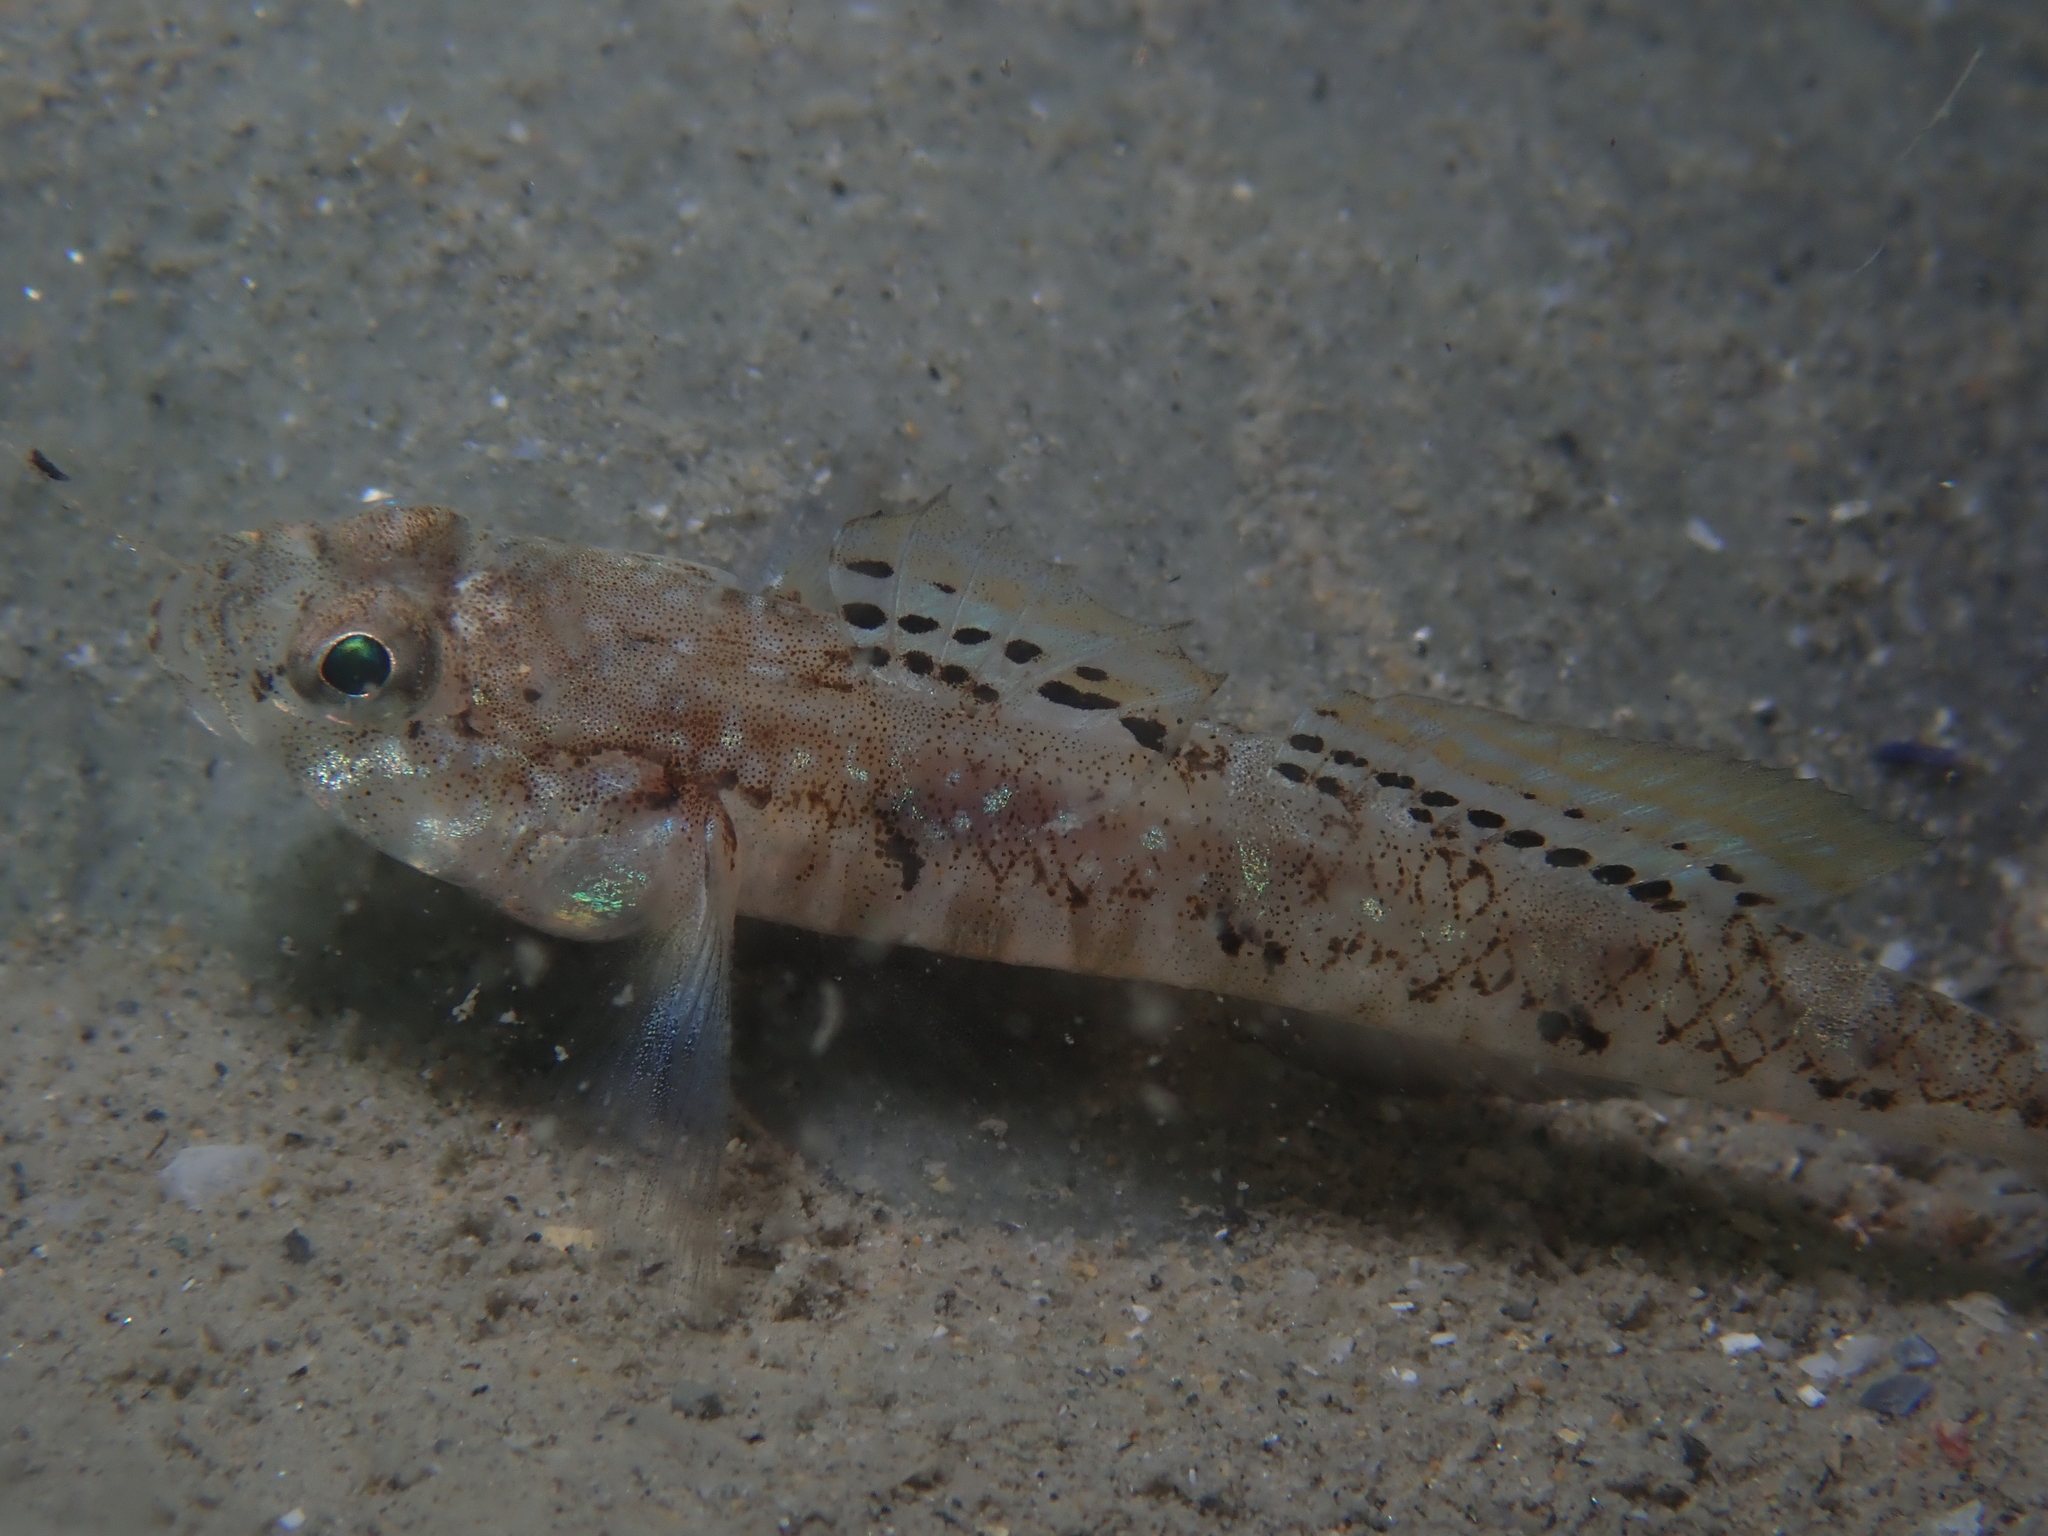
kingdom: Animalia
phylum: Chordata
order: Perciformes
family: Gobiidae
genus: Pomatoschistus
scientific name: Pomatoschistus pictus
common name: Painted goby
